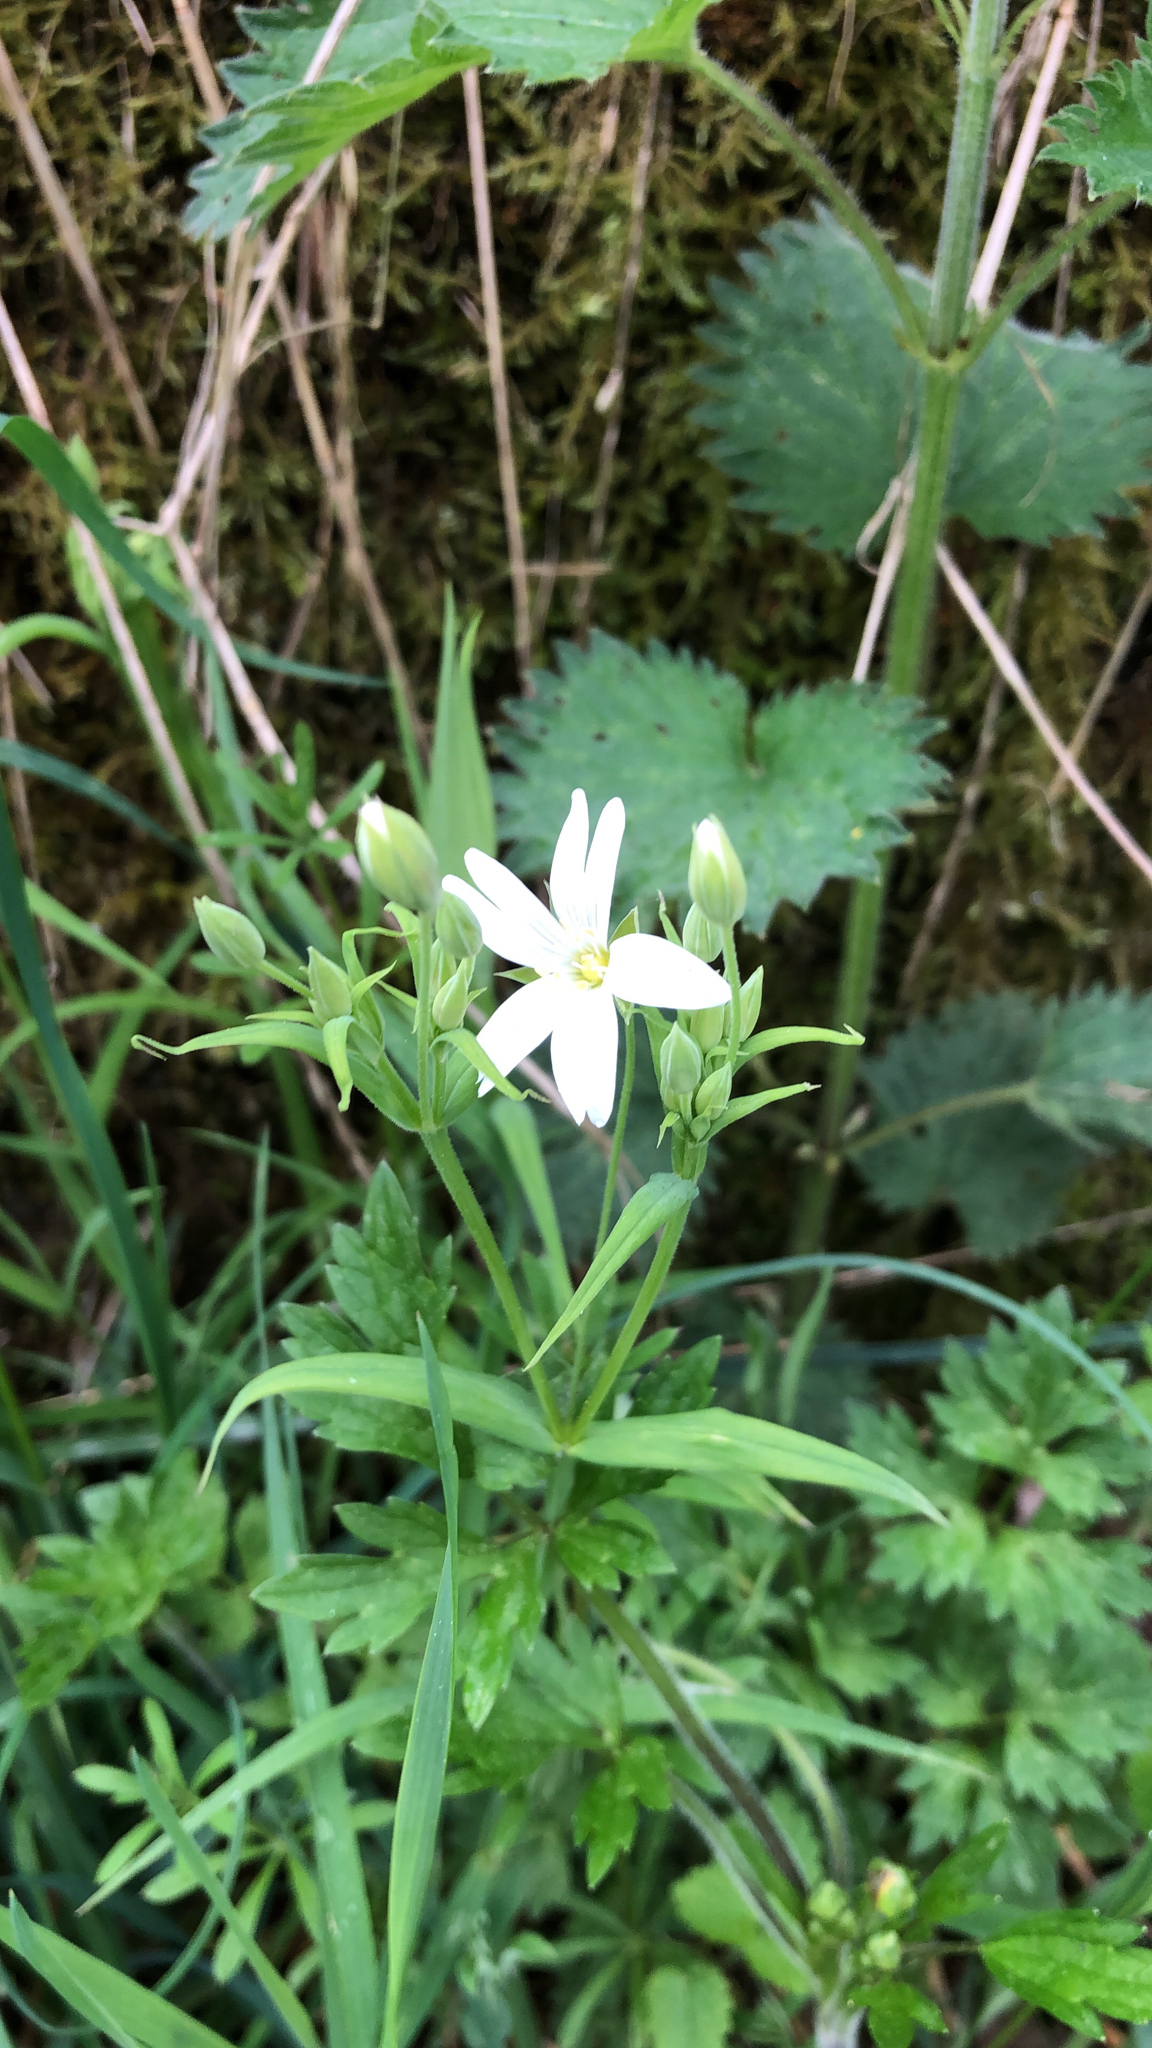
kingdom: Plantae
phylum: Tracheophyta
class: Magnoliopsida
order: Caryophyllales
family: Caryophyllaceae
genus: Rabelera
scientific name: Rabelera holostea
